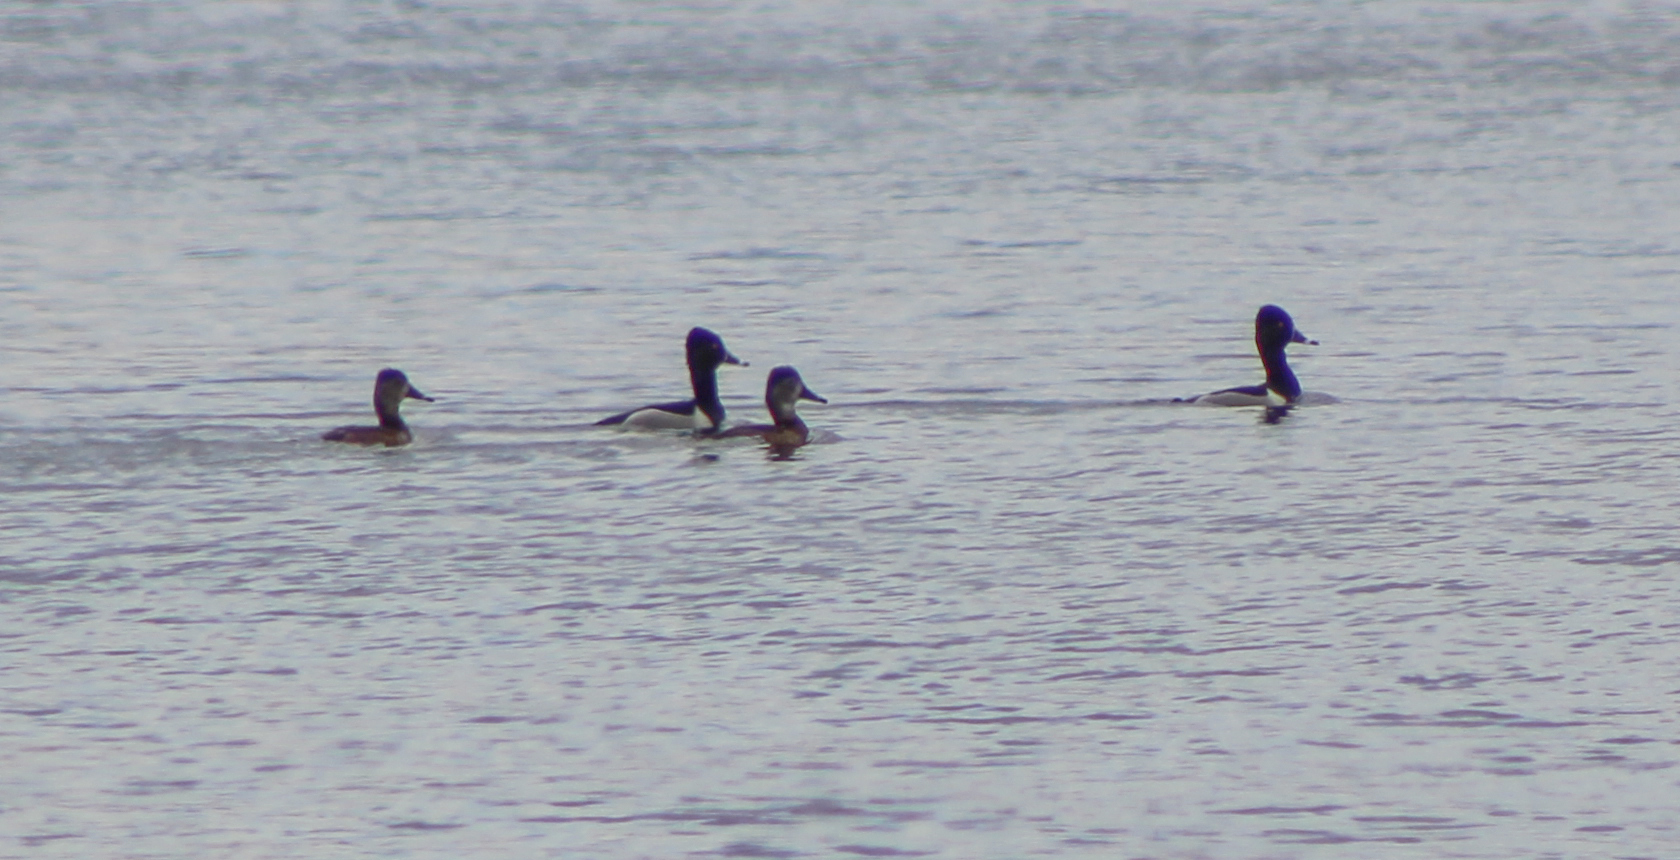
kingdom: Animalia
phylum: Chordata
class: Aves
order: Anseriformes
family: Anatidae
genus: Aythya
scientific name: Aythya collaris
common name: Ring-necked duck
